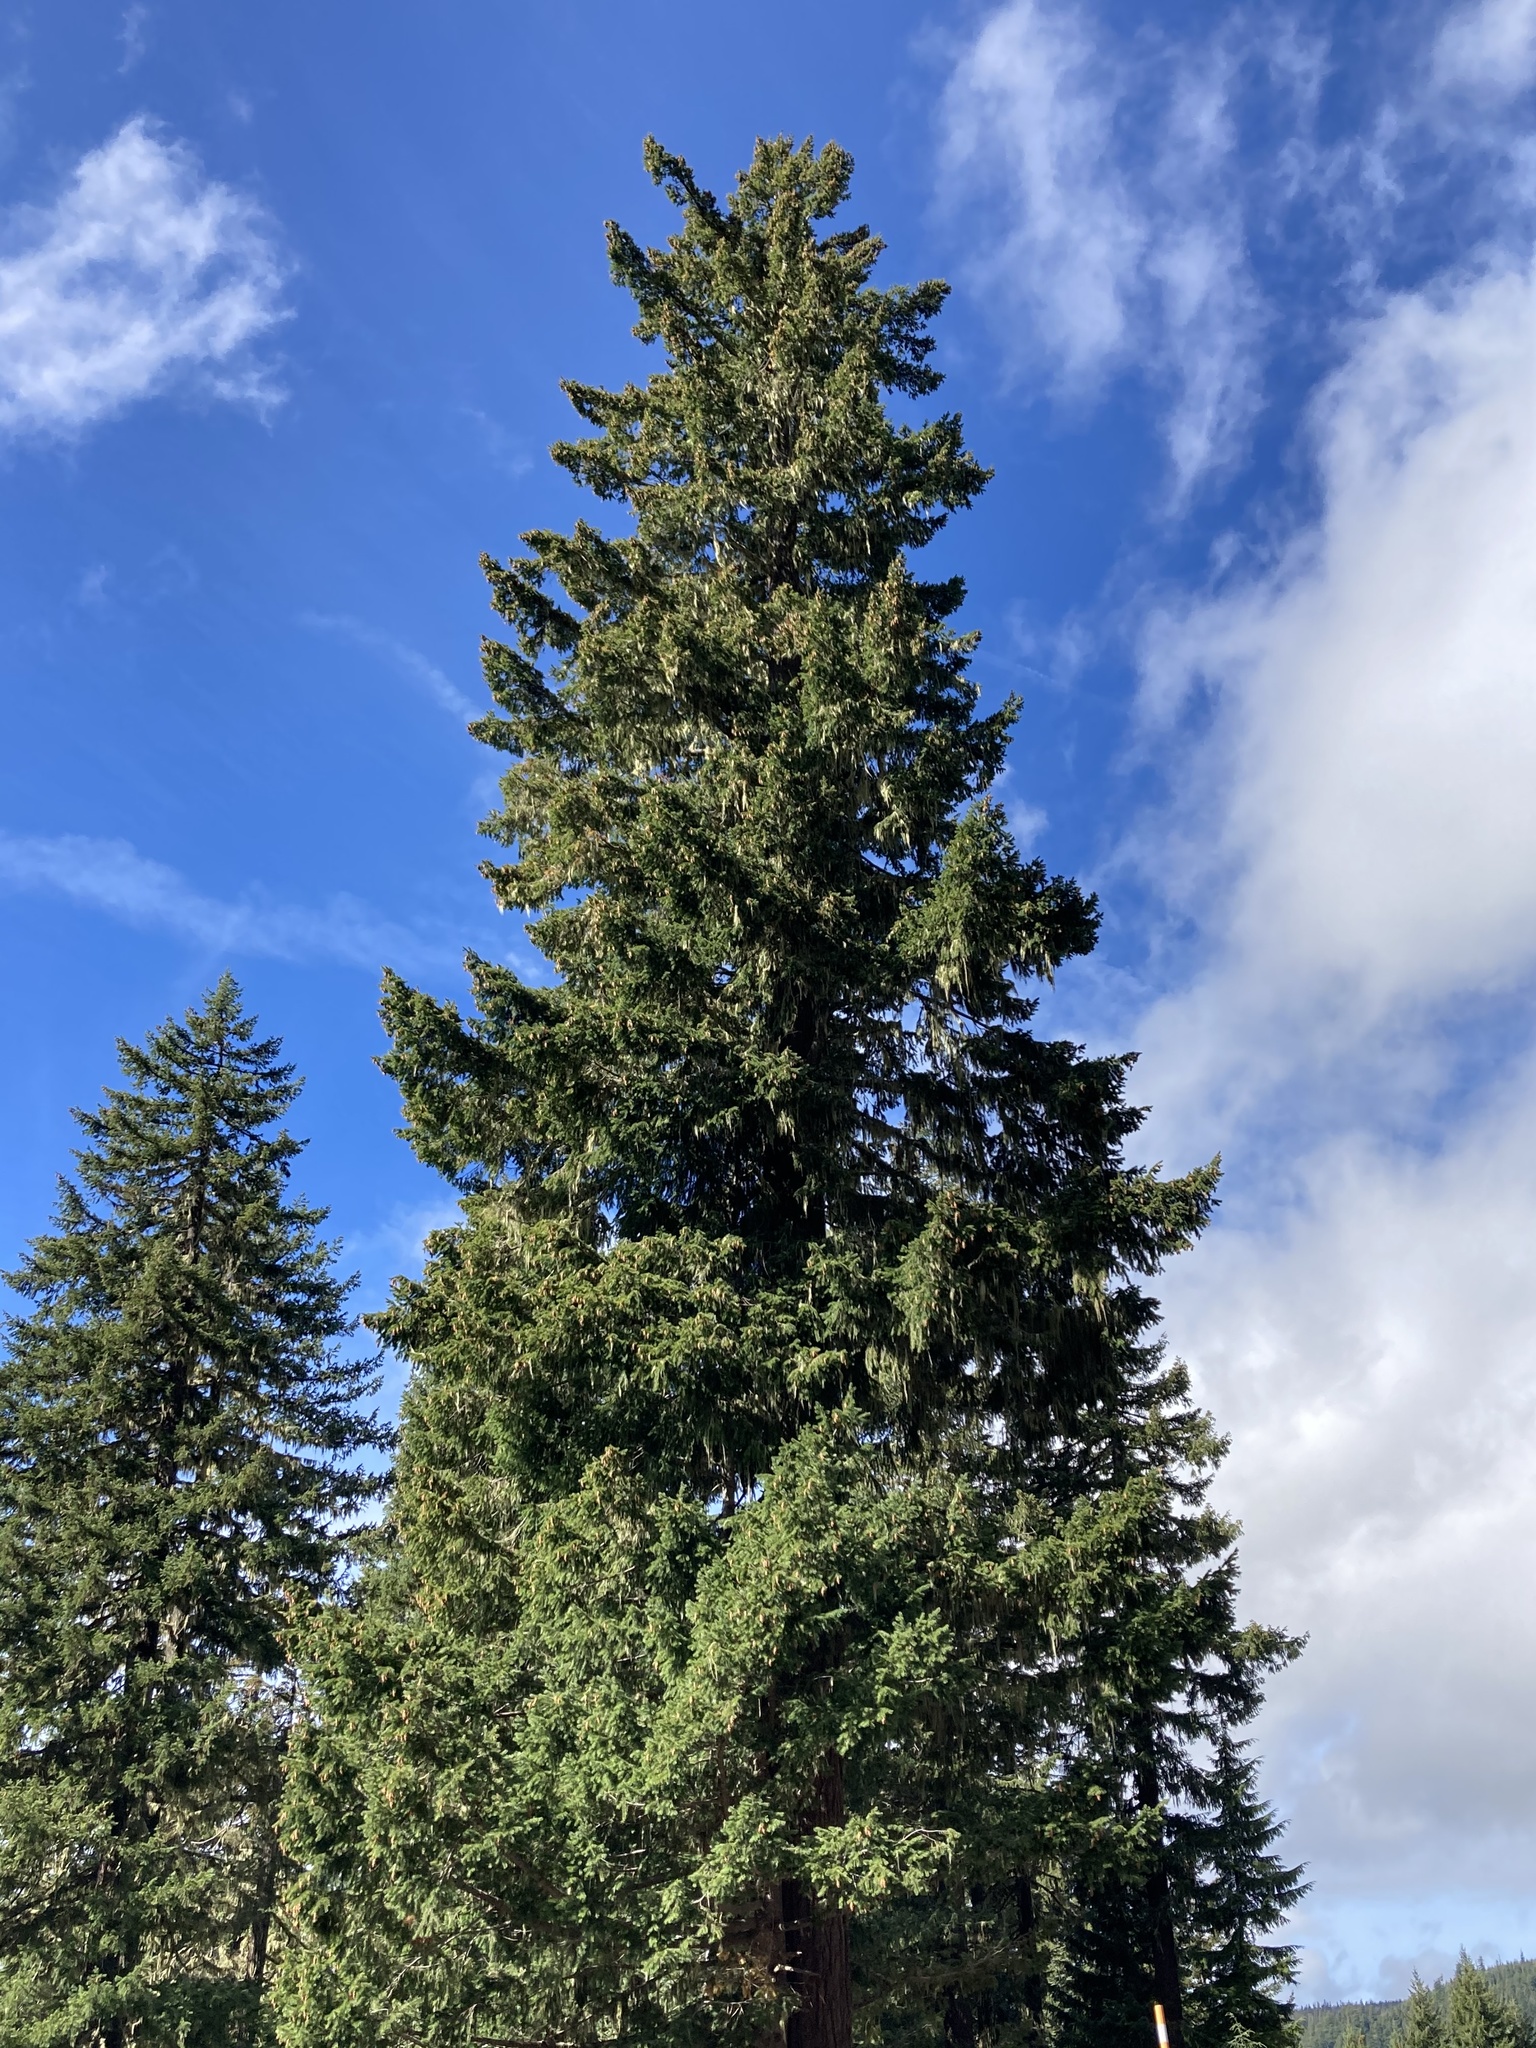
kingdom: Plantae
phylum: Tracheophyta
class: Pinopsida
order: Pinales
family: Pinaceae
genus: Pseudotsuga
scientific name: Pseudotsuga menziesii
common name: Douglas fir
